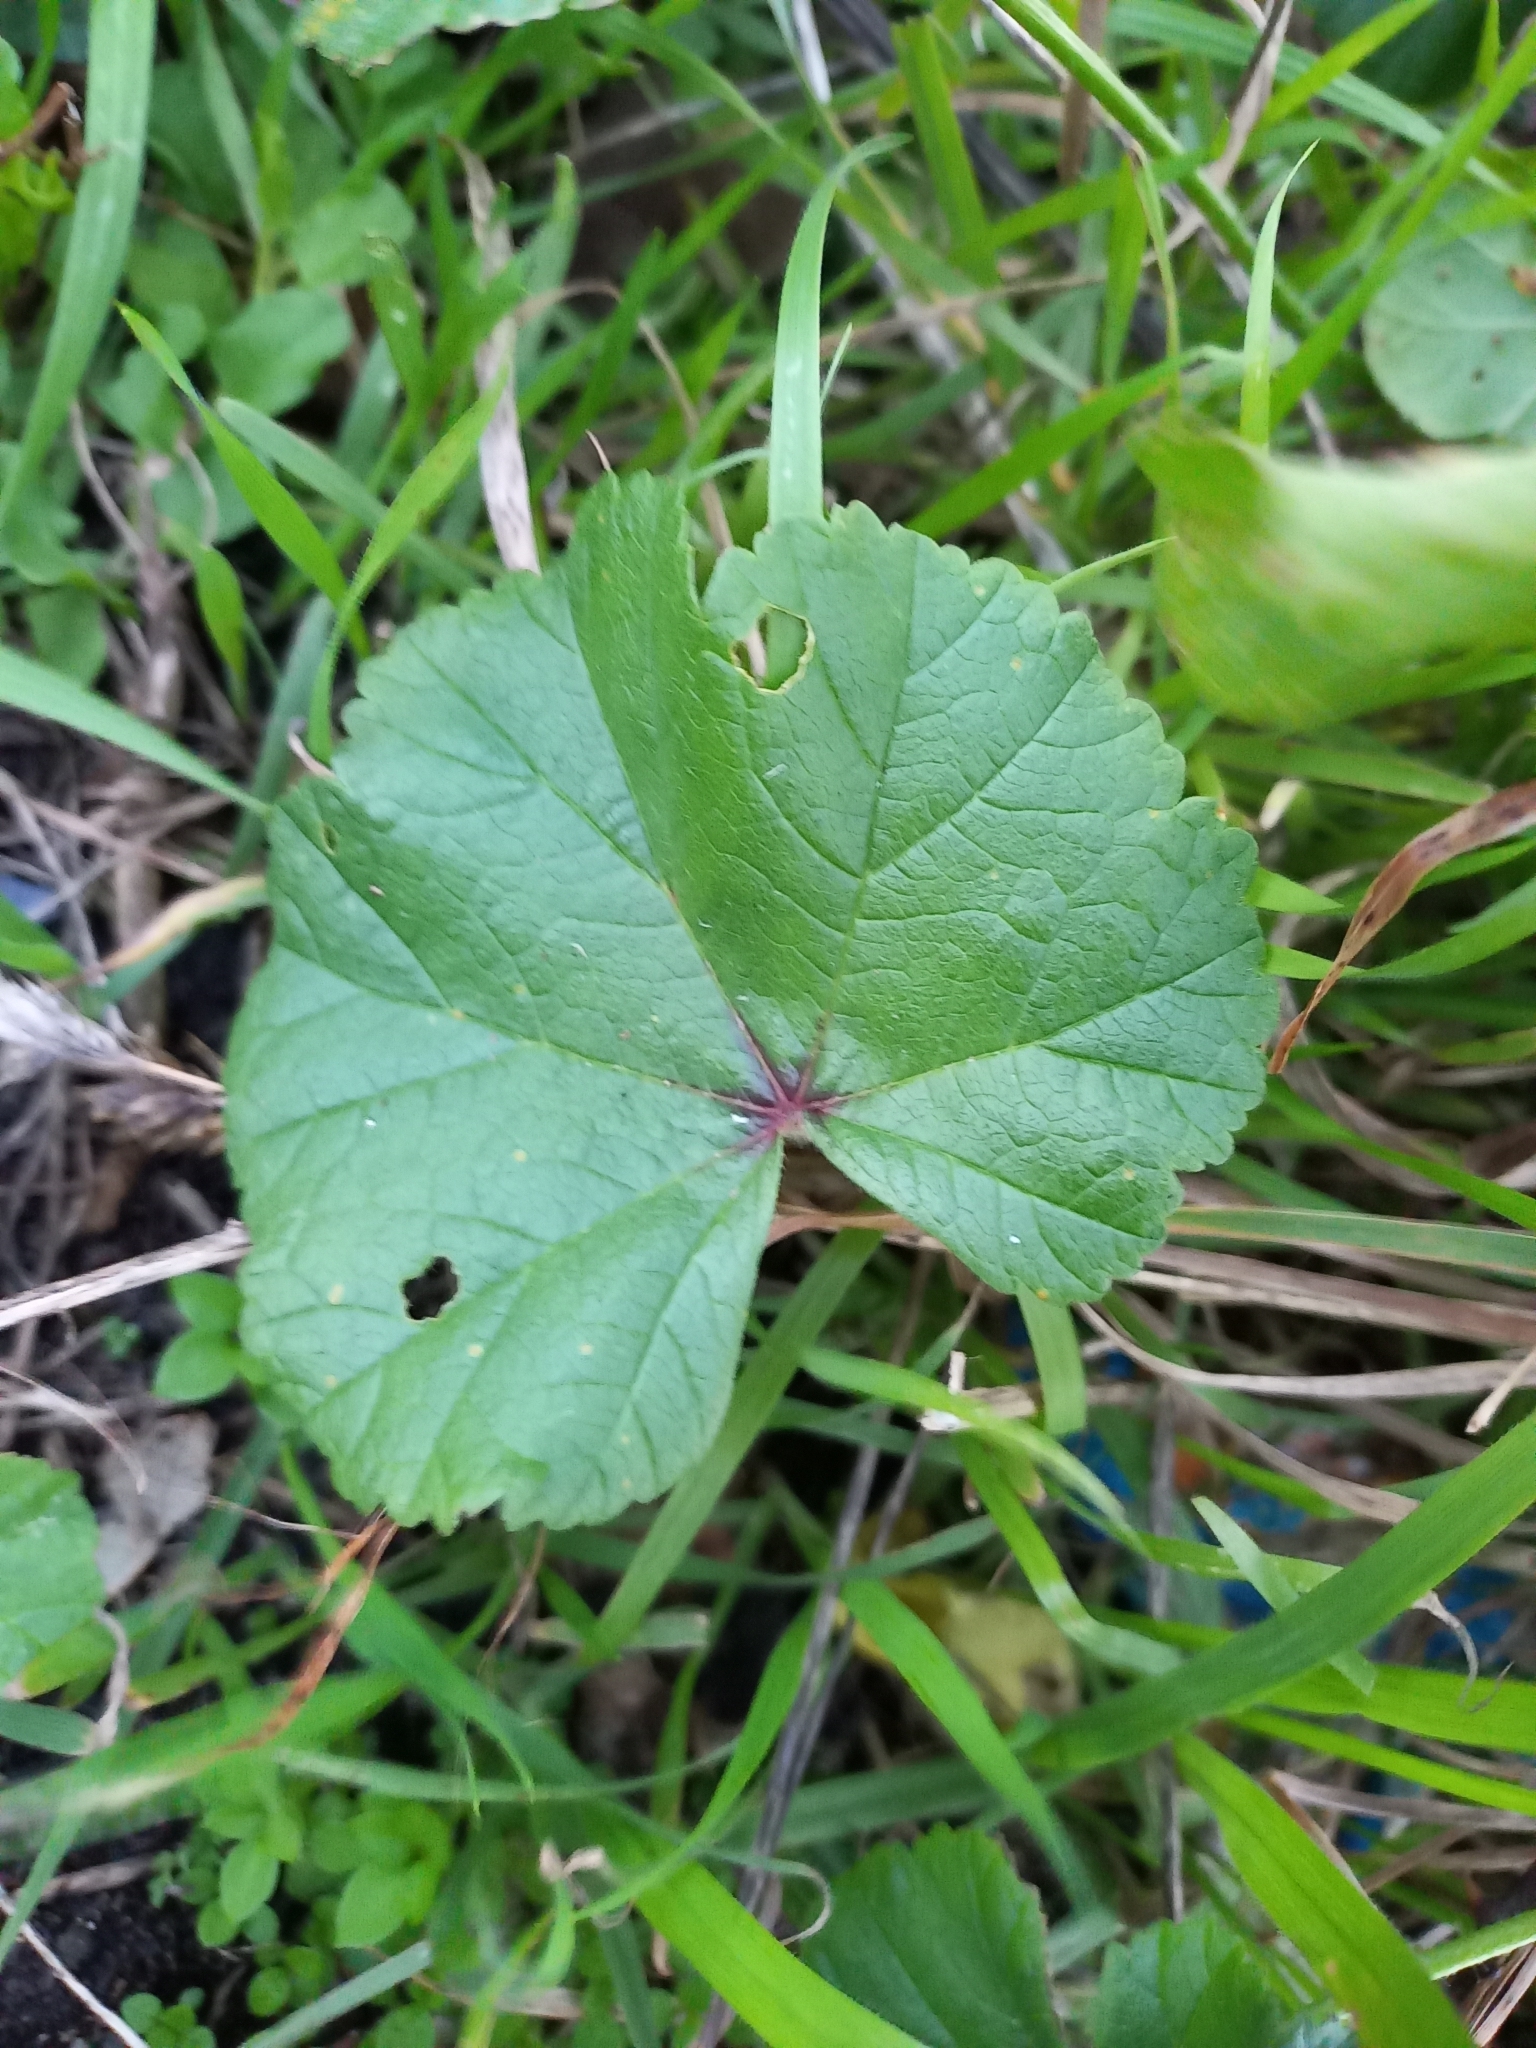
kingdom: Plantae
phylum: Tracheophyta
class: Magnoliopsida
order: Malvales
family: Malvaceae
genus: Malva
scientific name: Malva sylvestris
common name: Common mallow
